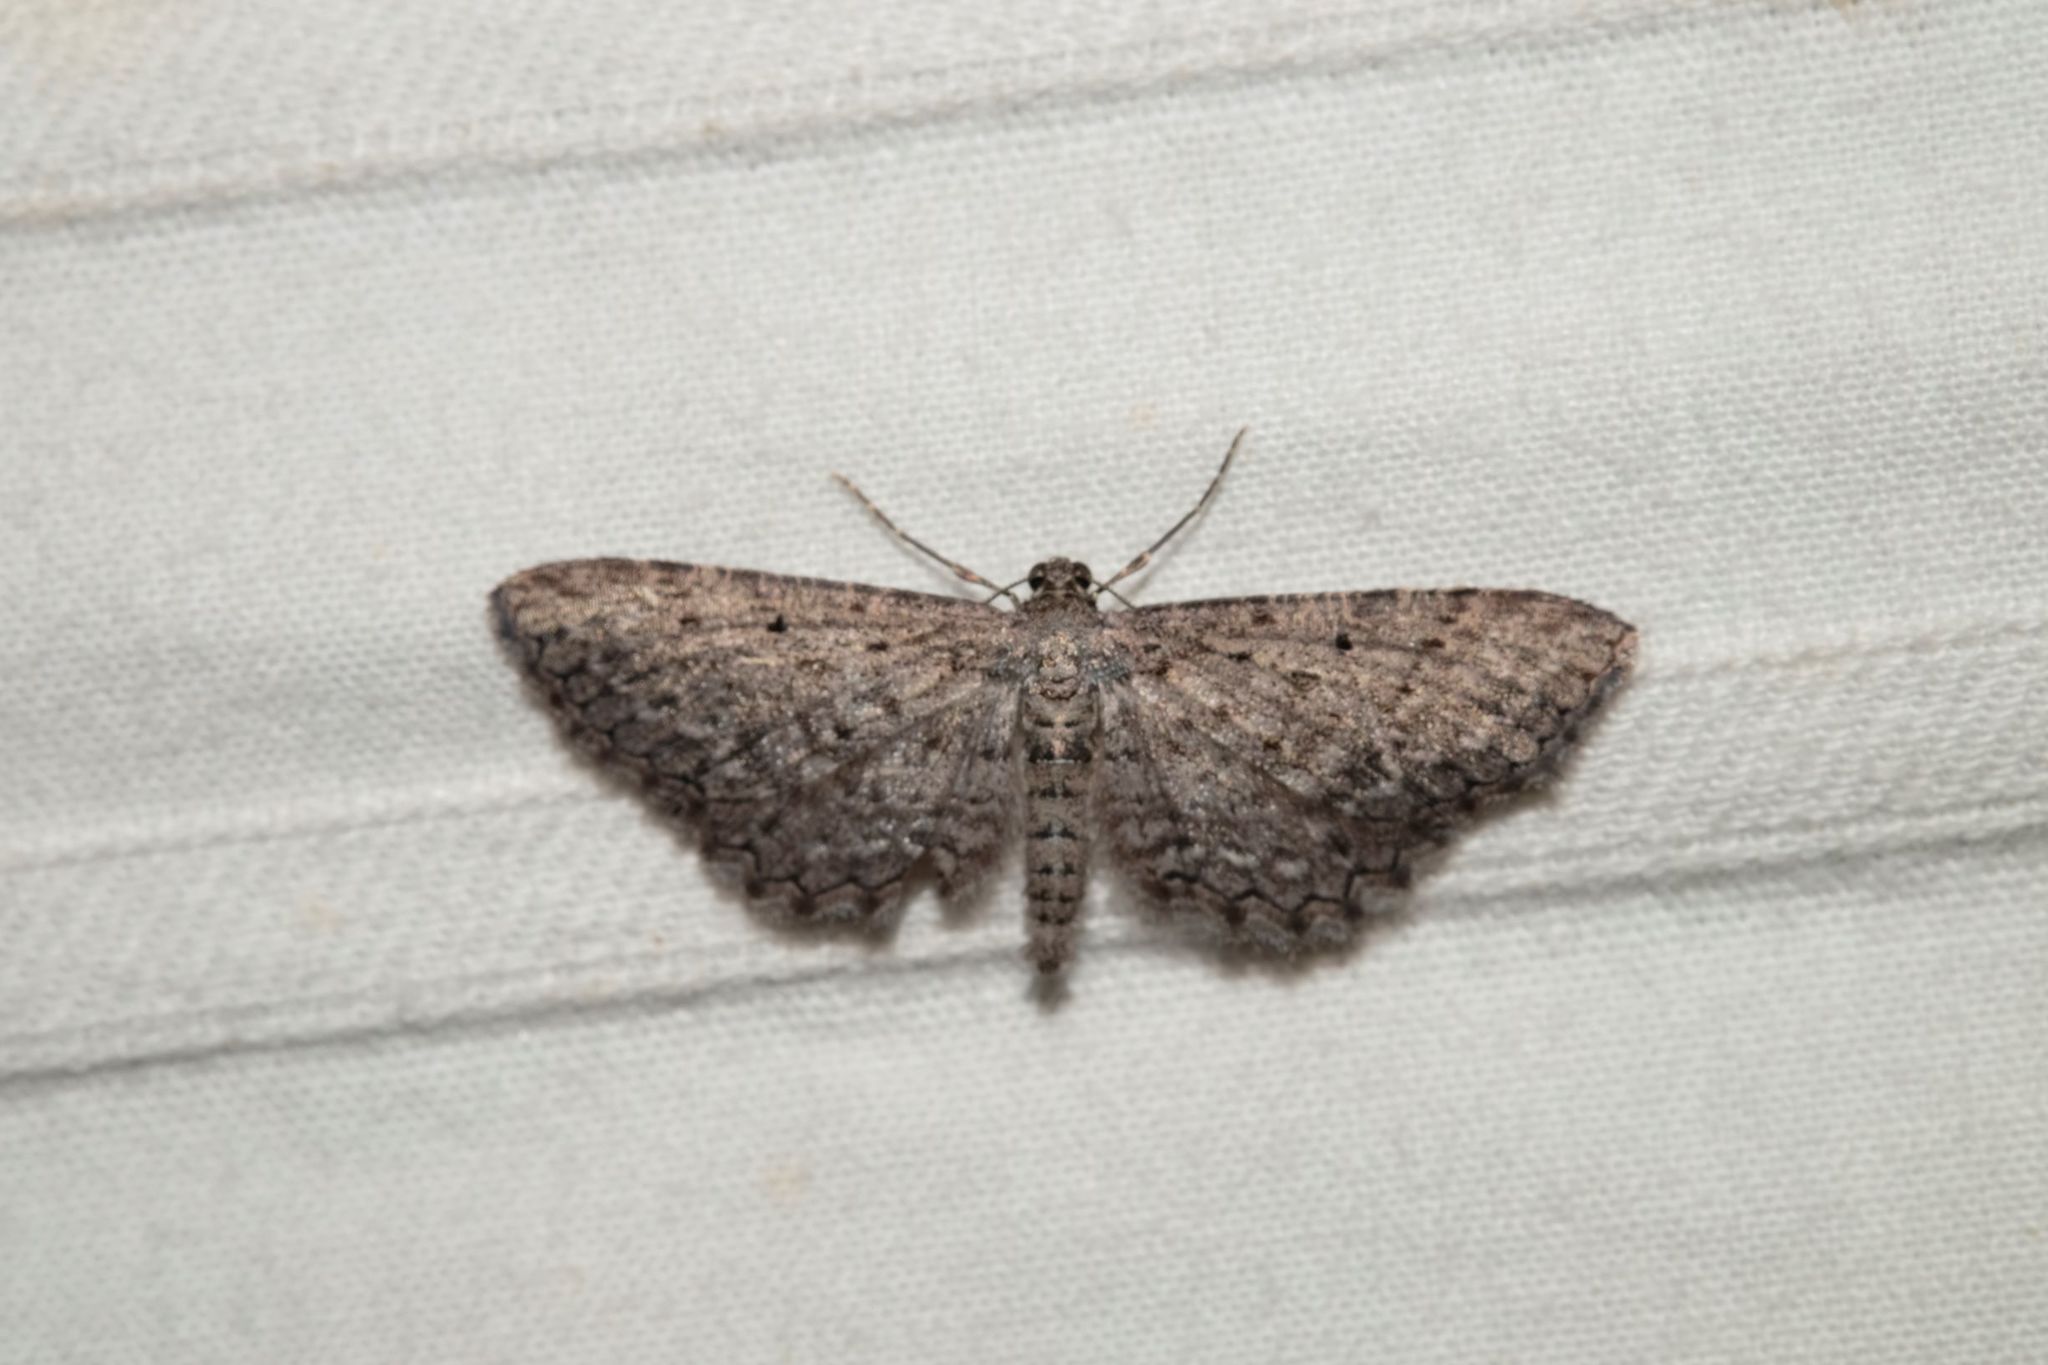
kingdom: Animalia
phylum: Arthropoda
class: Insecta
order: Lepidoptera
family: Geometridae
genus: Psilosticha
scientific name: Psilosticha pristis
